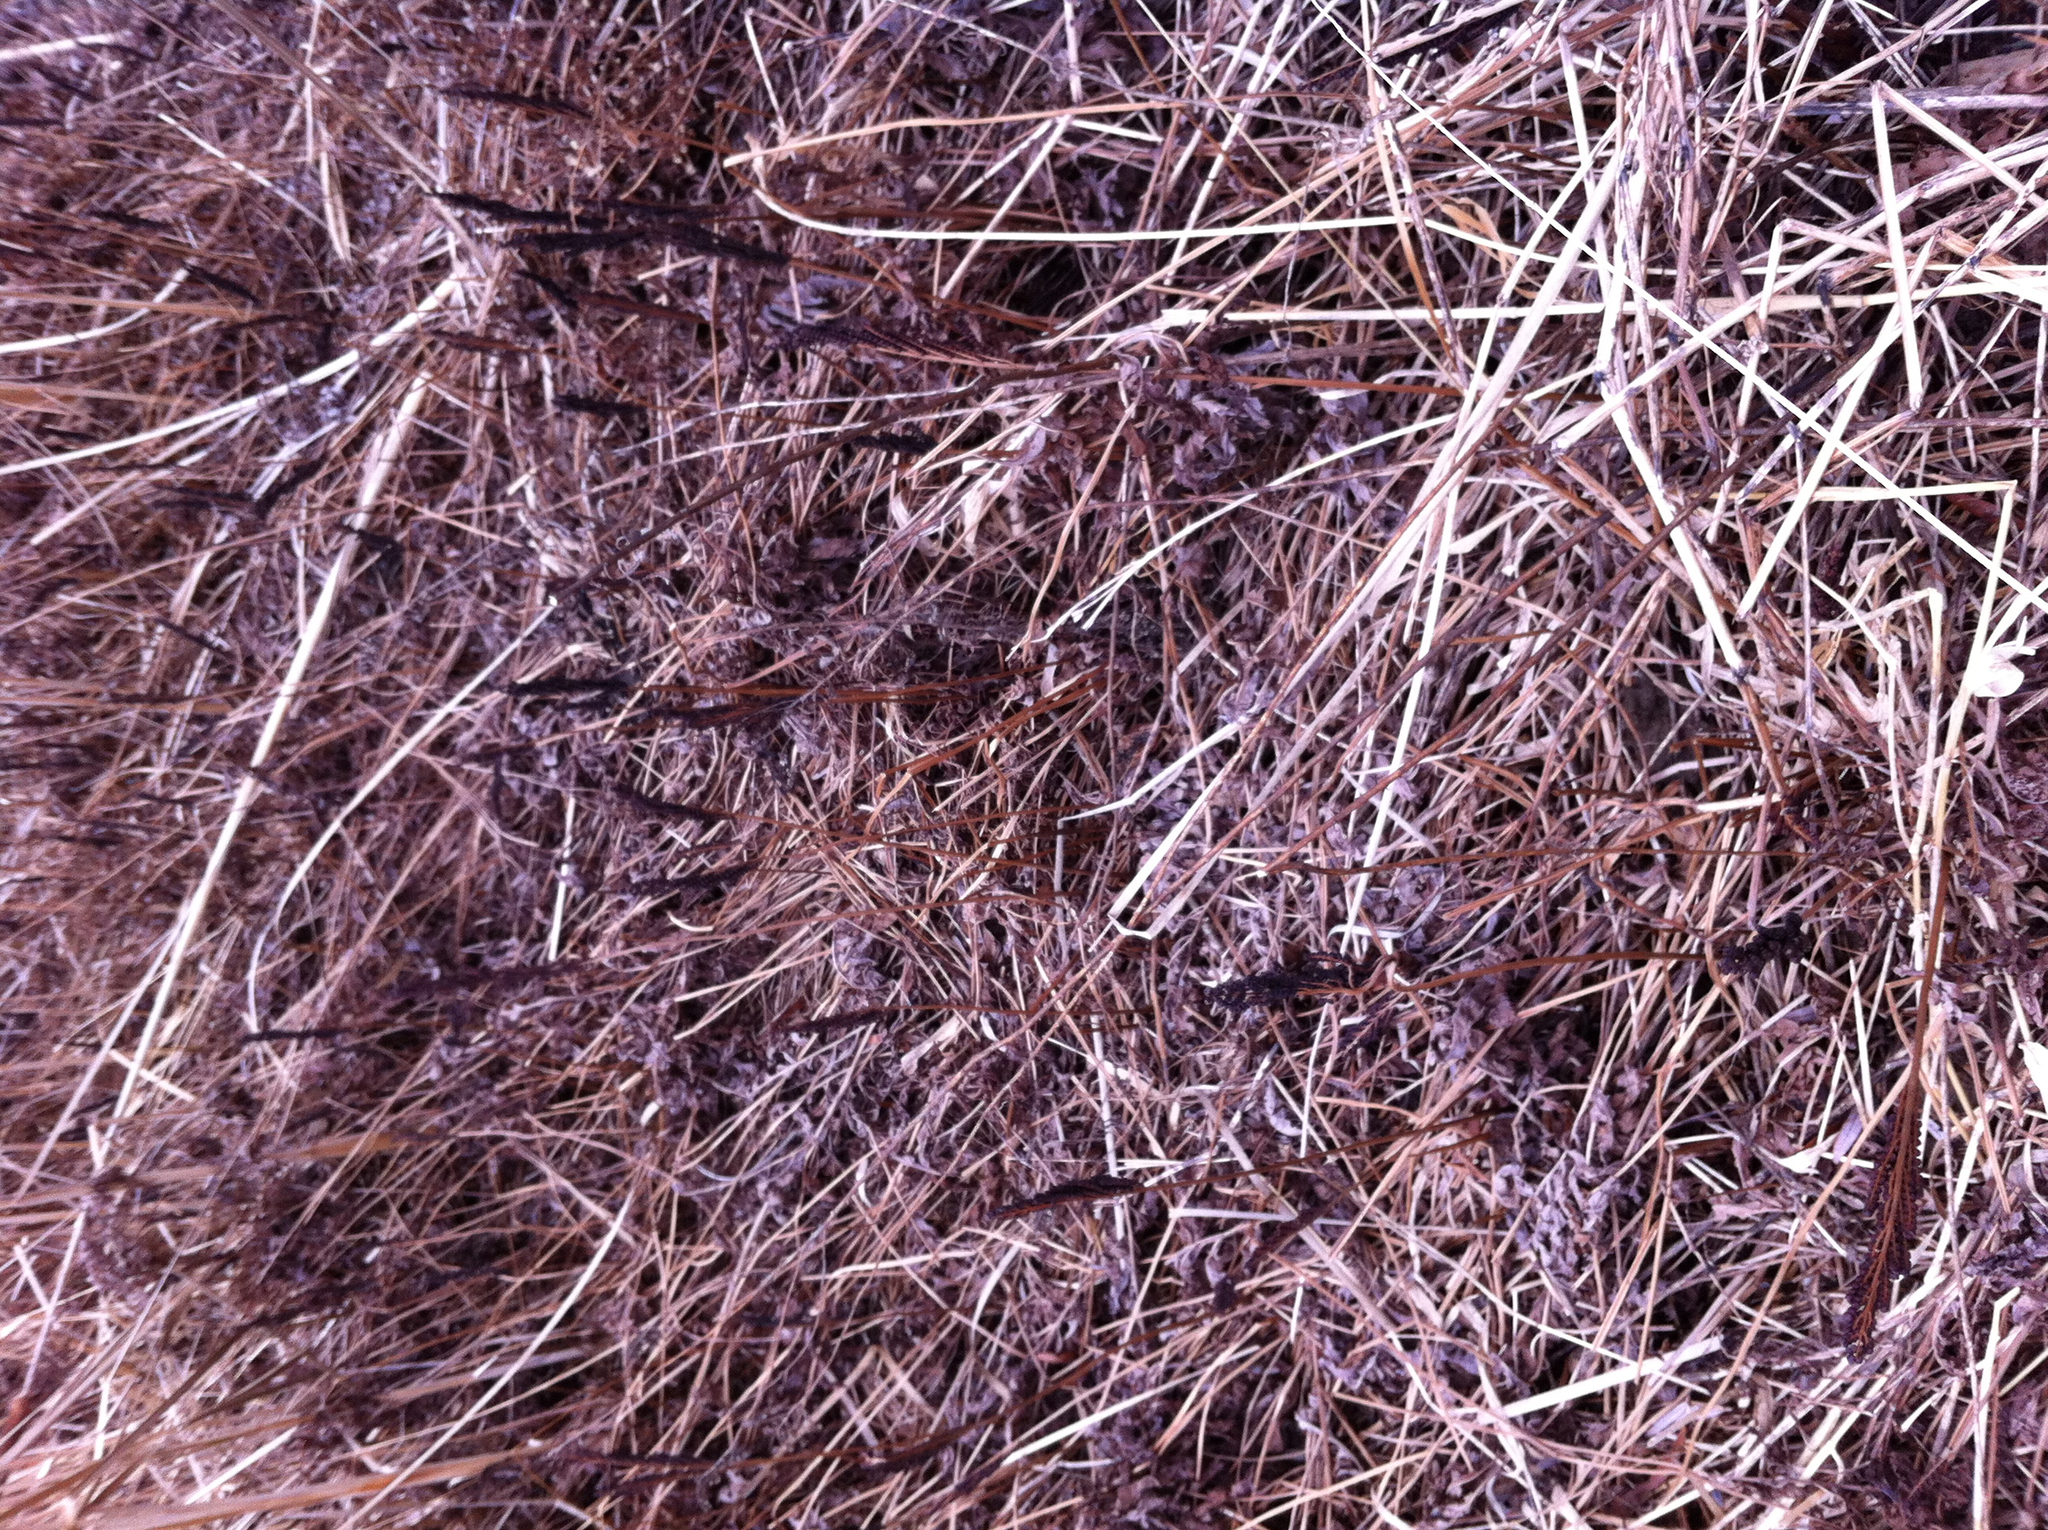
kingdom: Plantae
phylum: Tracheophyta
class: Polypodiopsida
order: Polypodiales
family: Onocleaceae
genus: Onoclea
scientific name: Onoclea sensibilis
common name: Sensitive fern
